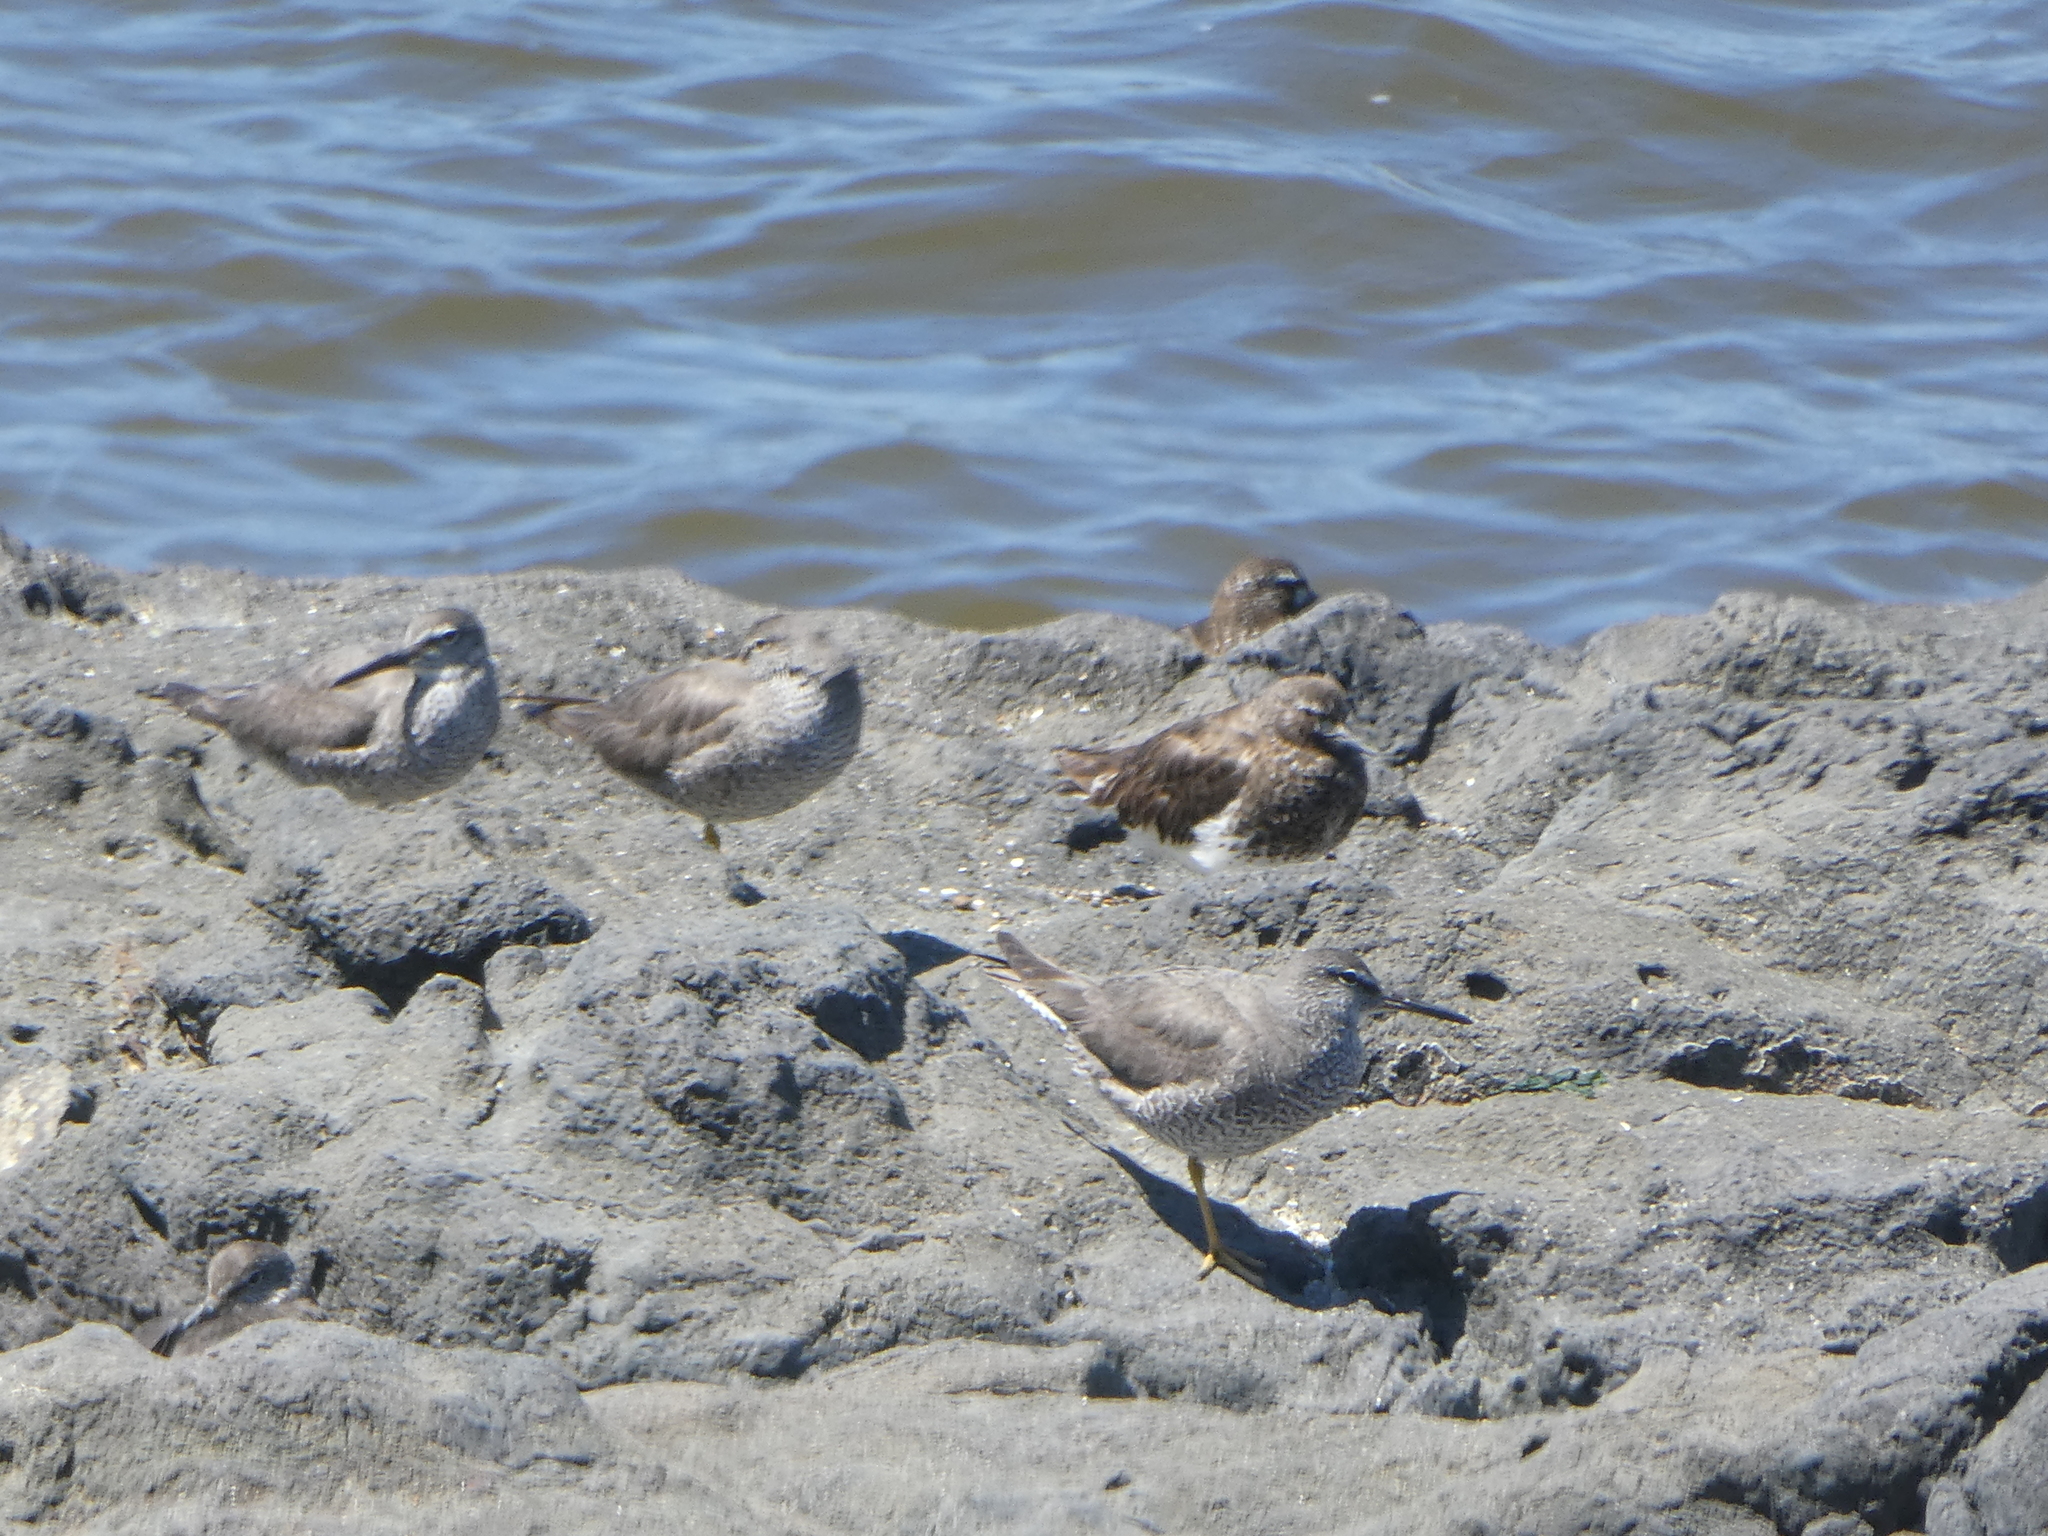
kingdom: Animalia
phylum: Chordata
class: Aves
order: Charadriiformes
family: Scolopacidae
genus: Tringa
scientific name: Tringa incana
